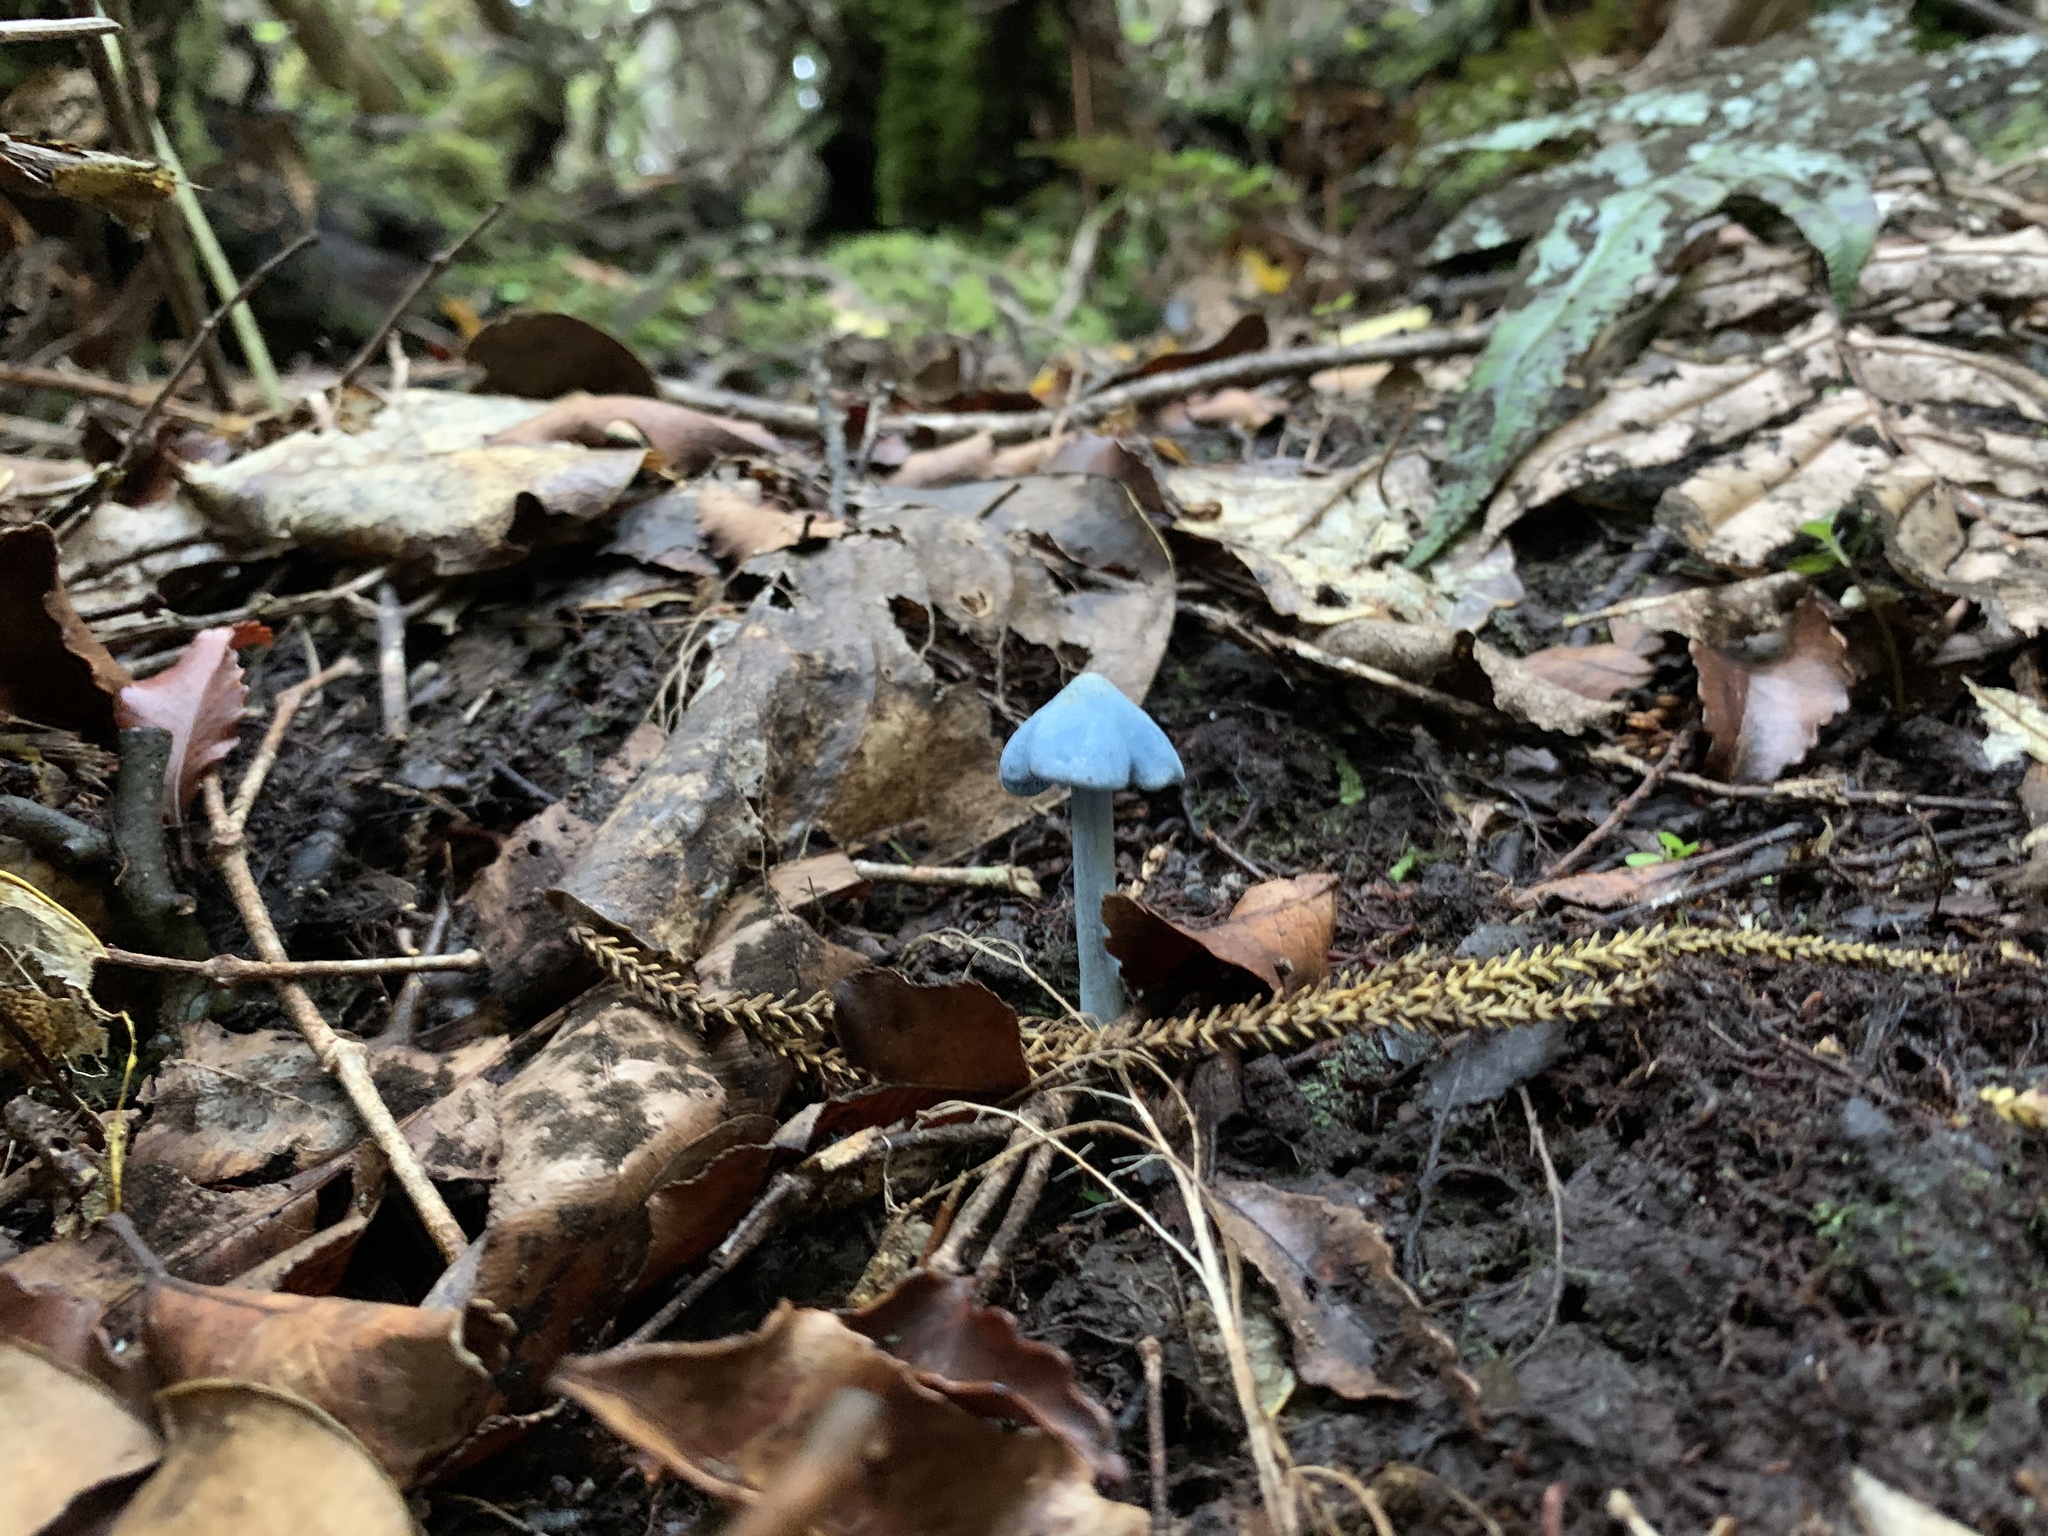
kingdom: Fungi
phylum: Basidiomycota
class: Agaricomycetes
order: Agaricales
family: Entolomataceae
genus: Entoloma
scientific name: Entoloma hochstetteri
